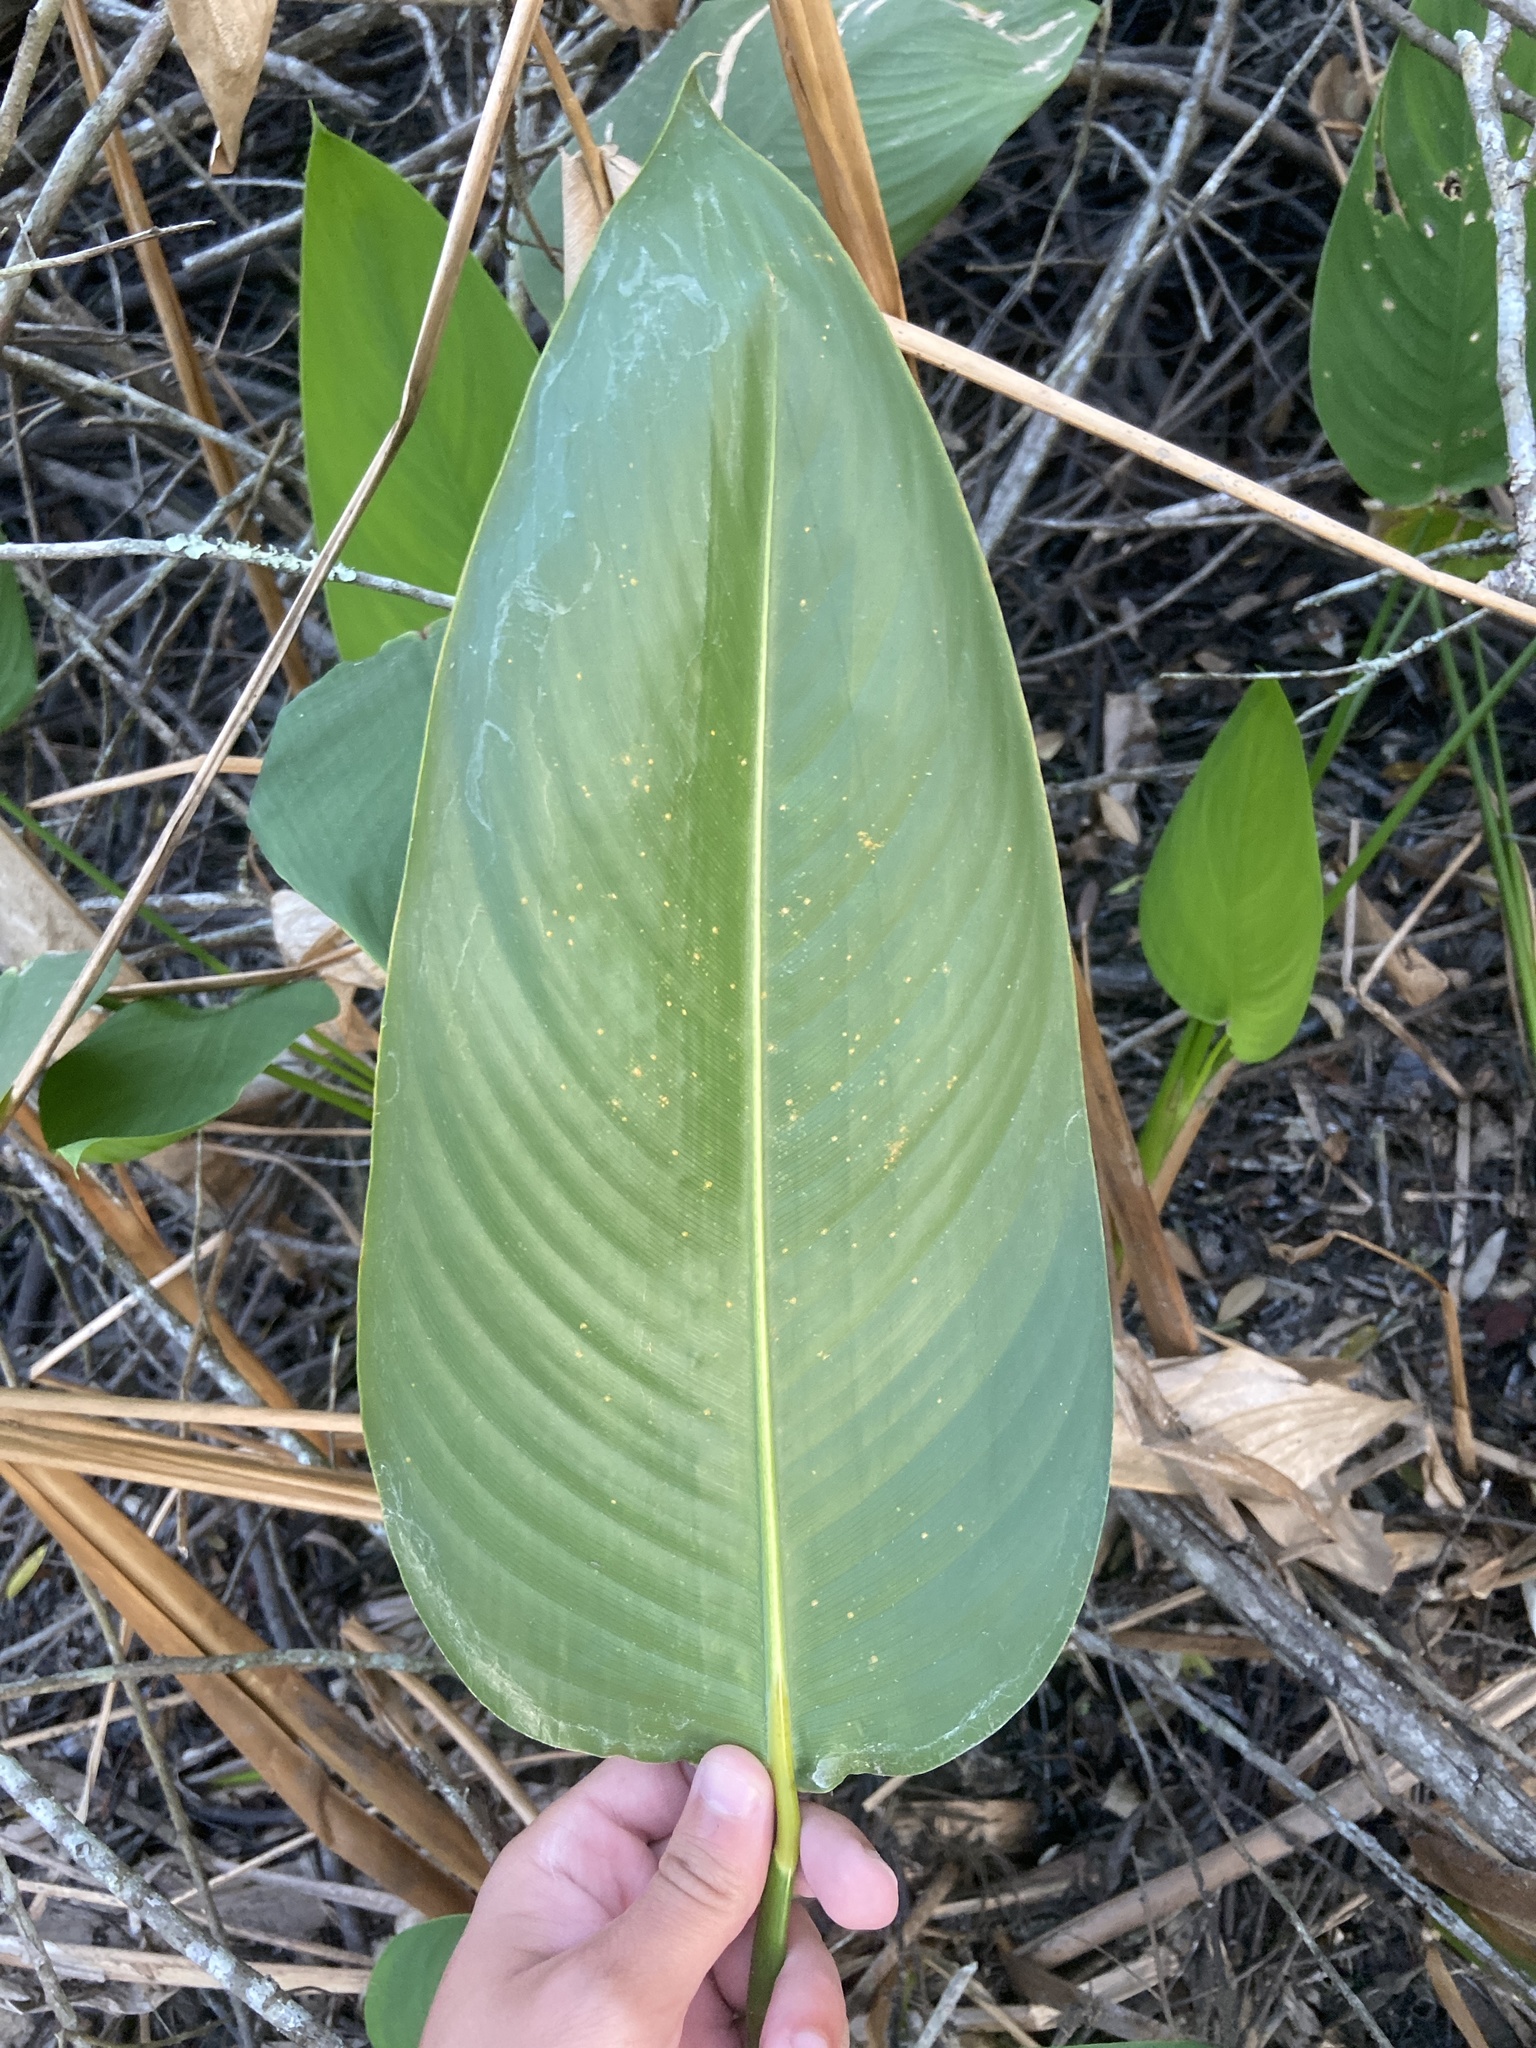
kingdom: Plantae
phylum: Tracheophyta
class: Liliopsida
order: Zingiberales
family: Marantaceae
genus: Thalia
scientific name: Thalia geniculata
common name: Arrowroot
